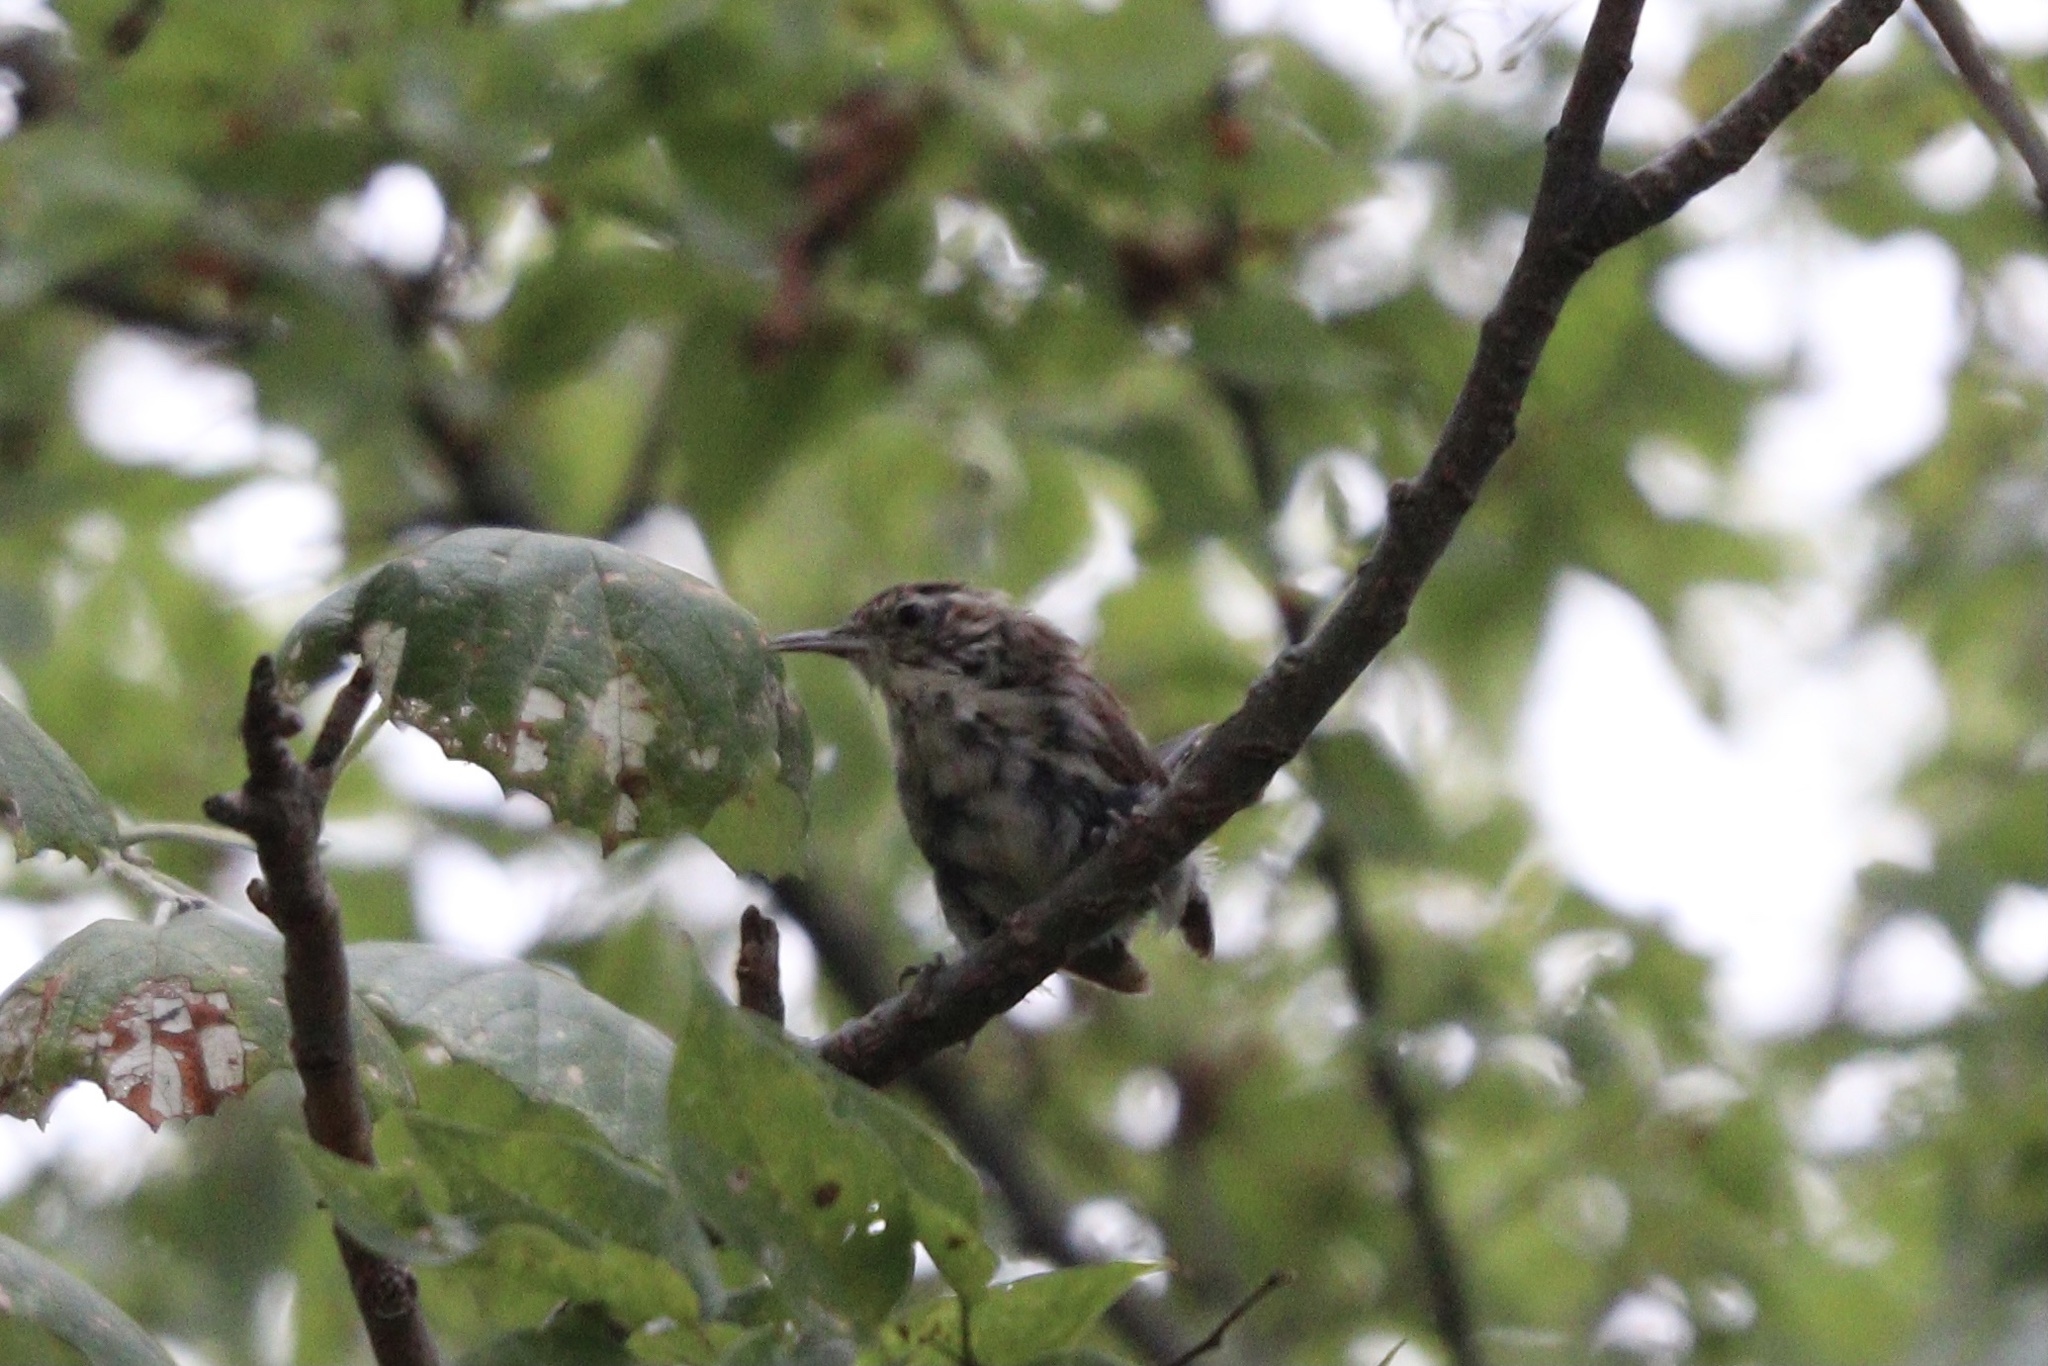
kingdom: Animalia
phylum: Chordata
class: Aves
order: Passeriformes
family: Troglodytidae
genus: Thryothorus
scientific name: Thryothorus ludovicianus
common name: Carolina wren
